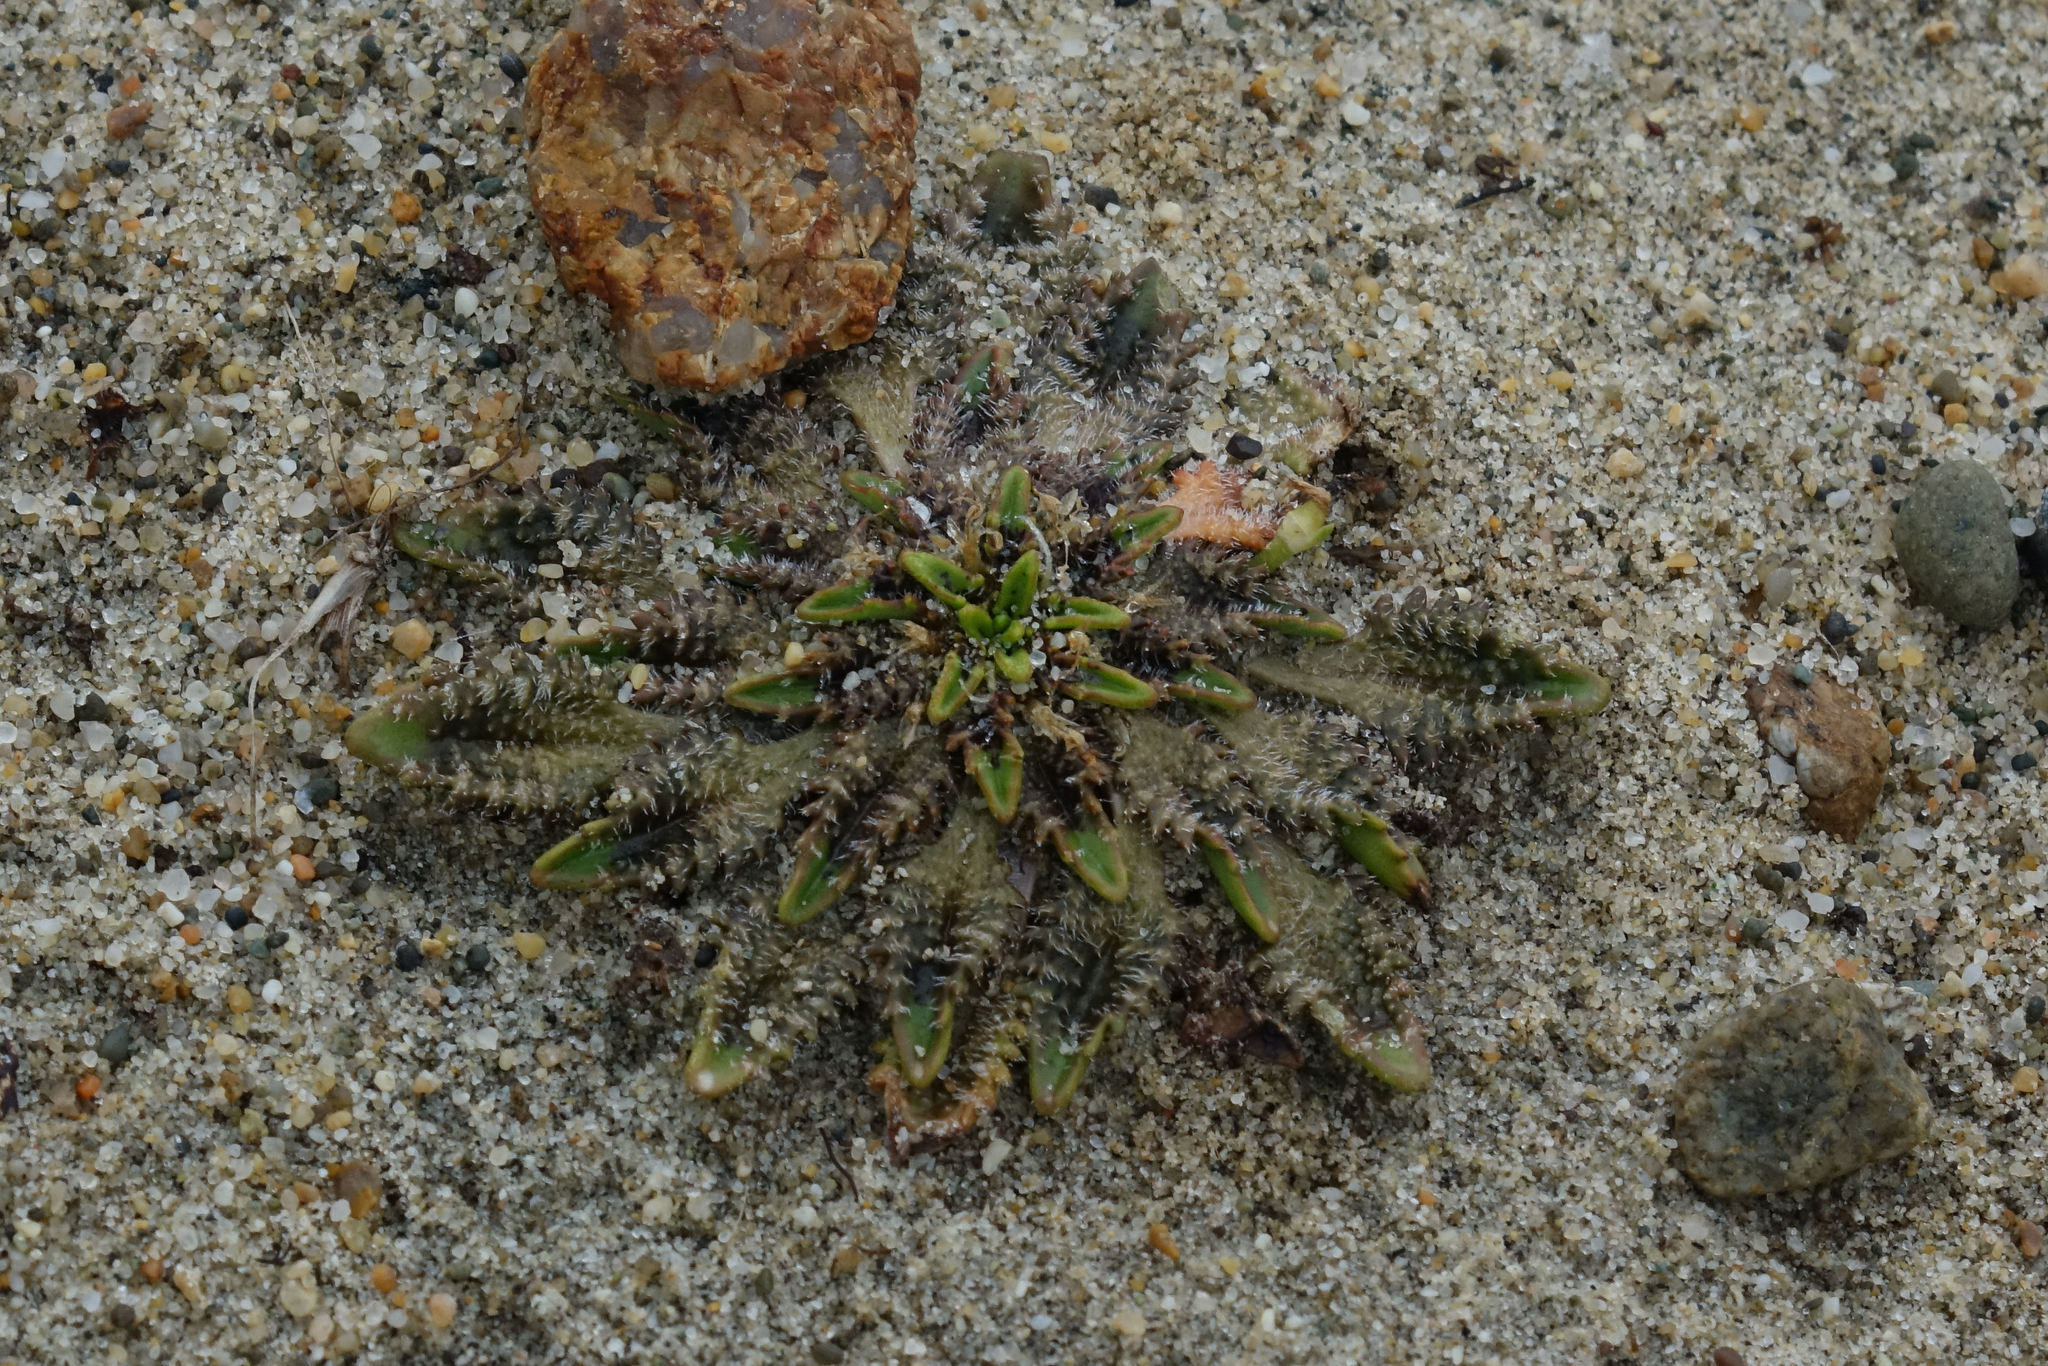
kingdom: Plantae
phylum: Tracheophyta
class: Magnoliopsida
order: Lamiales
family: Plantaginaceae
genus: Plantago
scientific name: Plantago triandra
